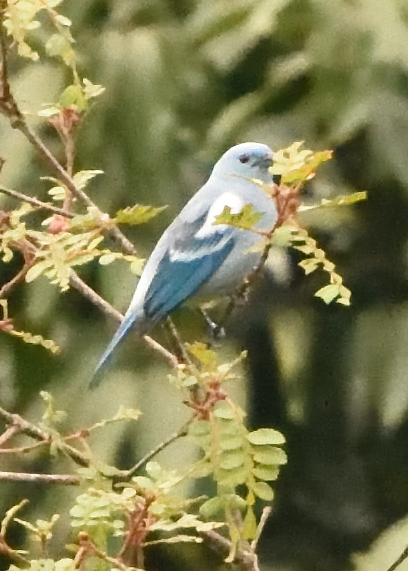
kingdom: Animalia
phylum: Chordata
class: Aves
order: Passeriformes
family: Thraupidae
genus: Thraupis
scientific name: Thraupis episcopus
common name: Blue-grey tanager
